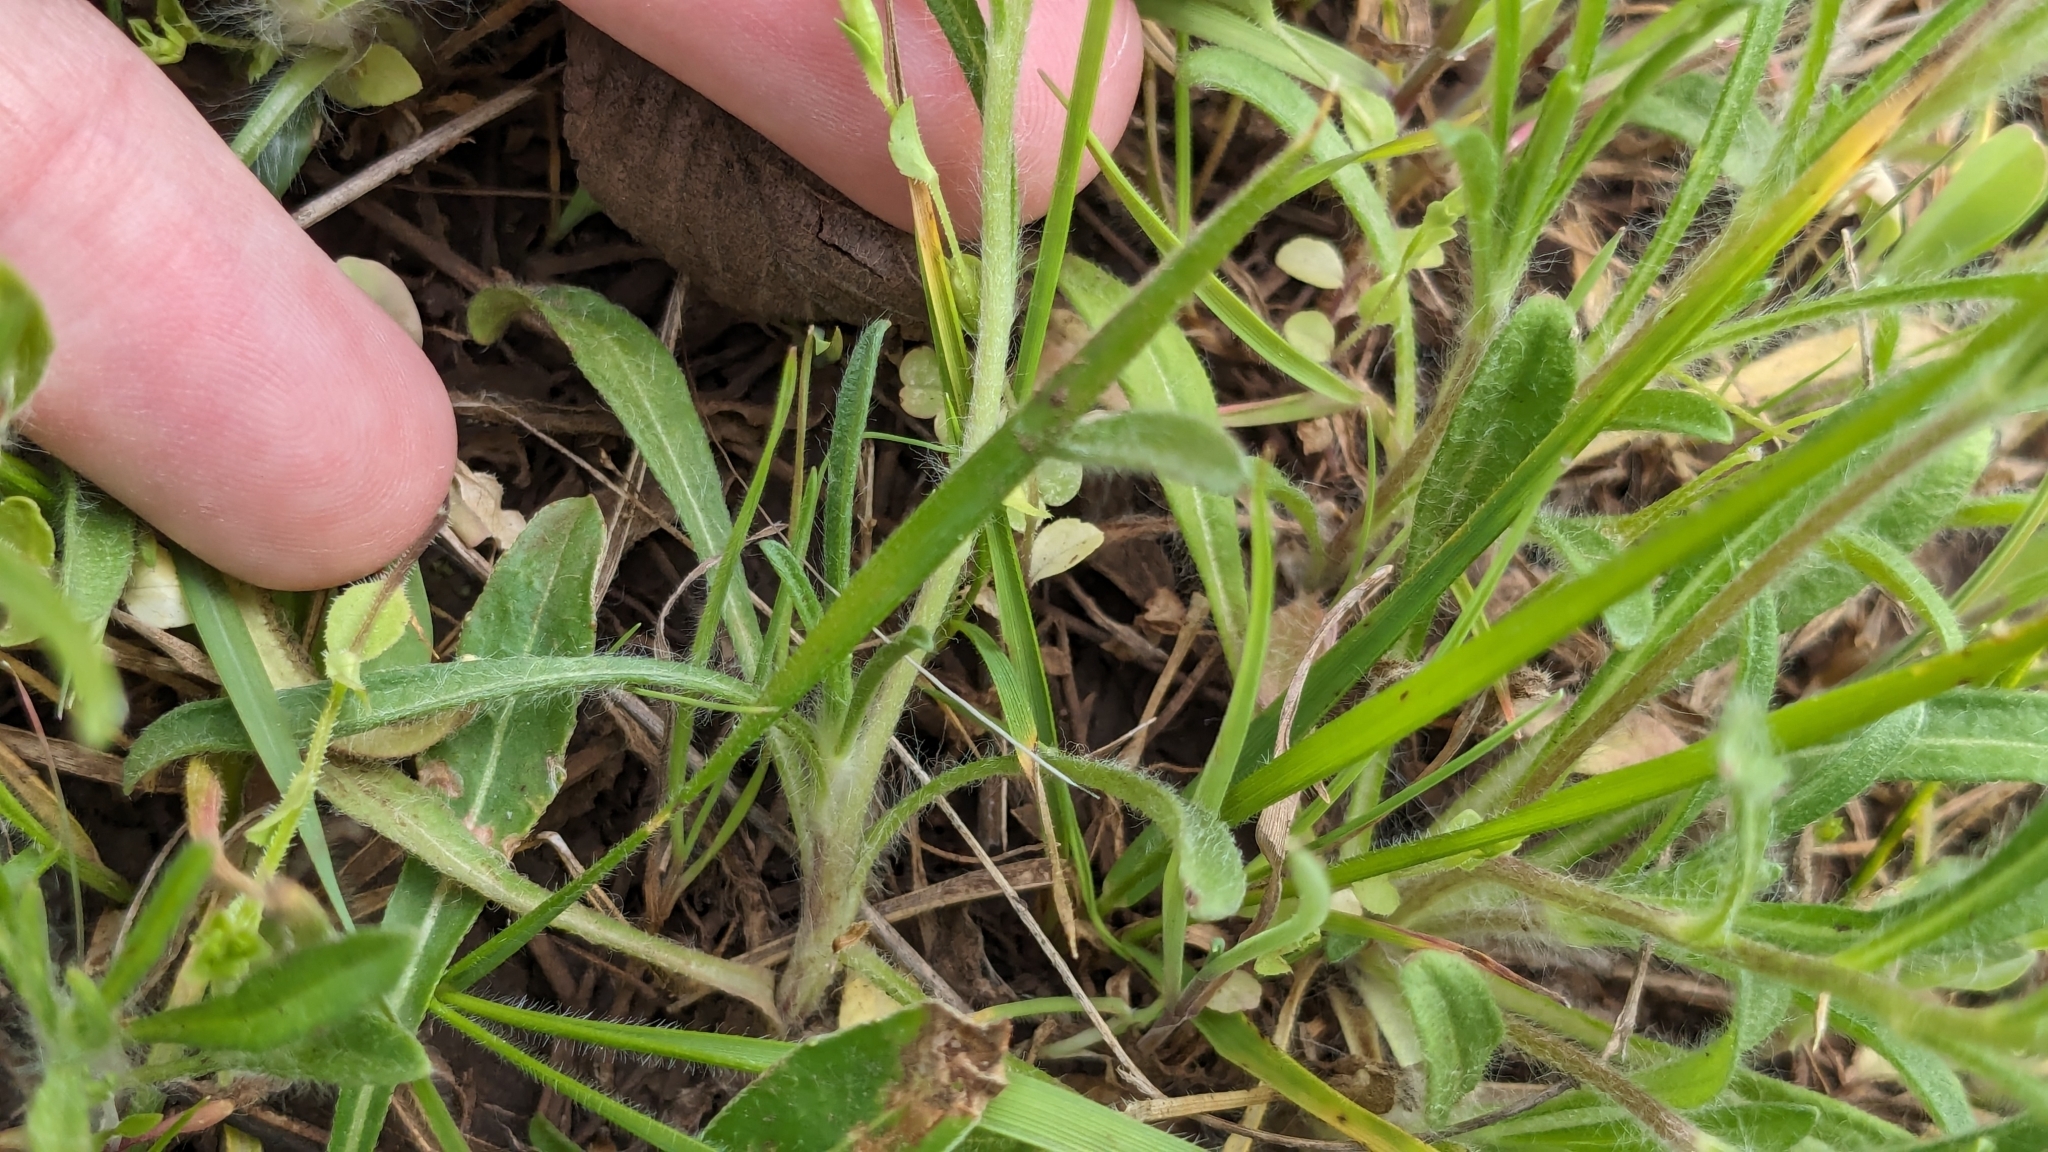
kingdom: Plantae
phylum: Tracheophyta
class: Magnoliopsida
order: Asterales
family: Asteraceae
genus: Tetraneuris
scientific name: Tetraneuris linearifolia
